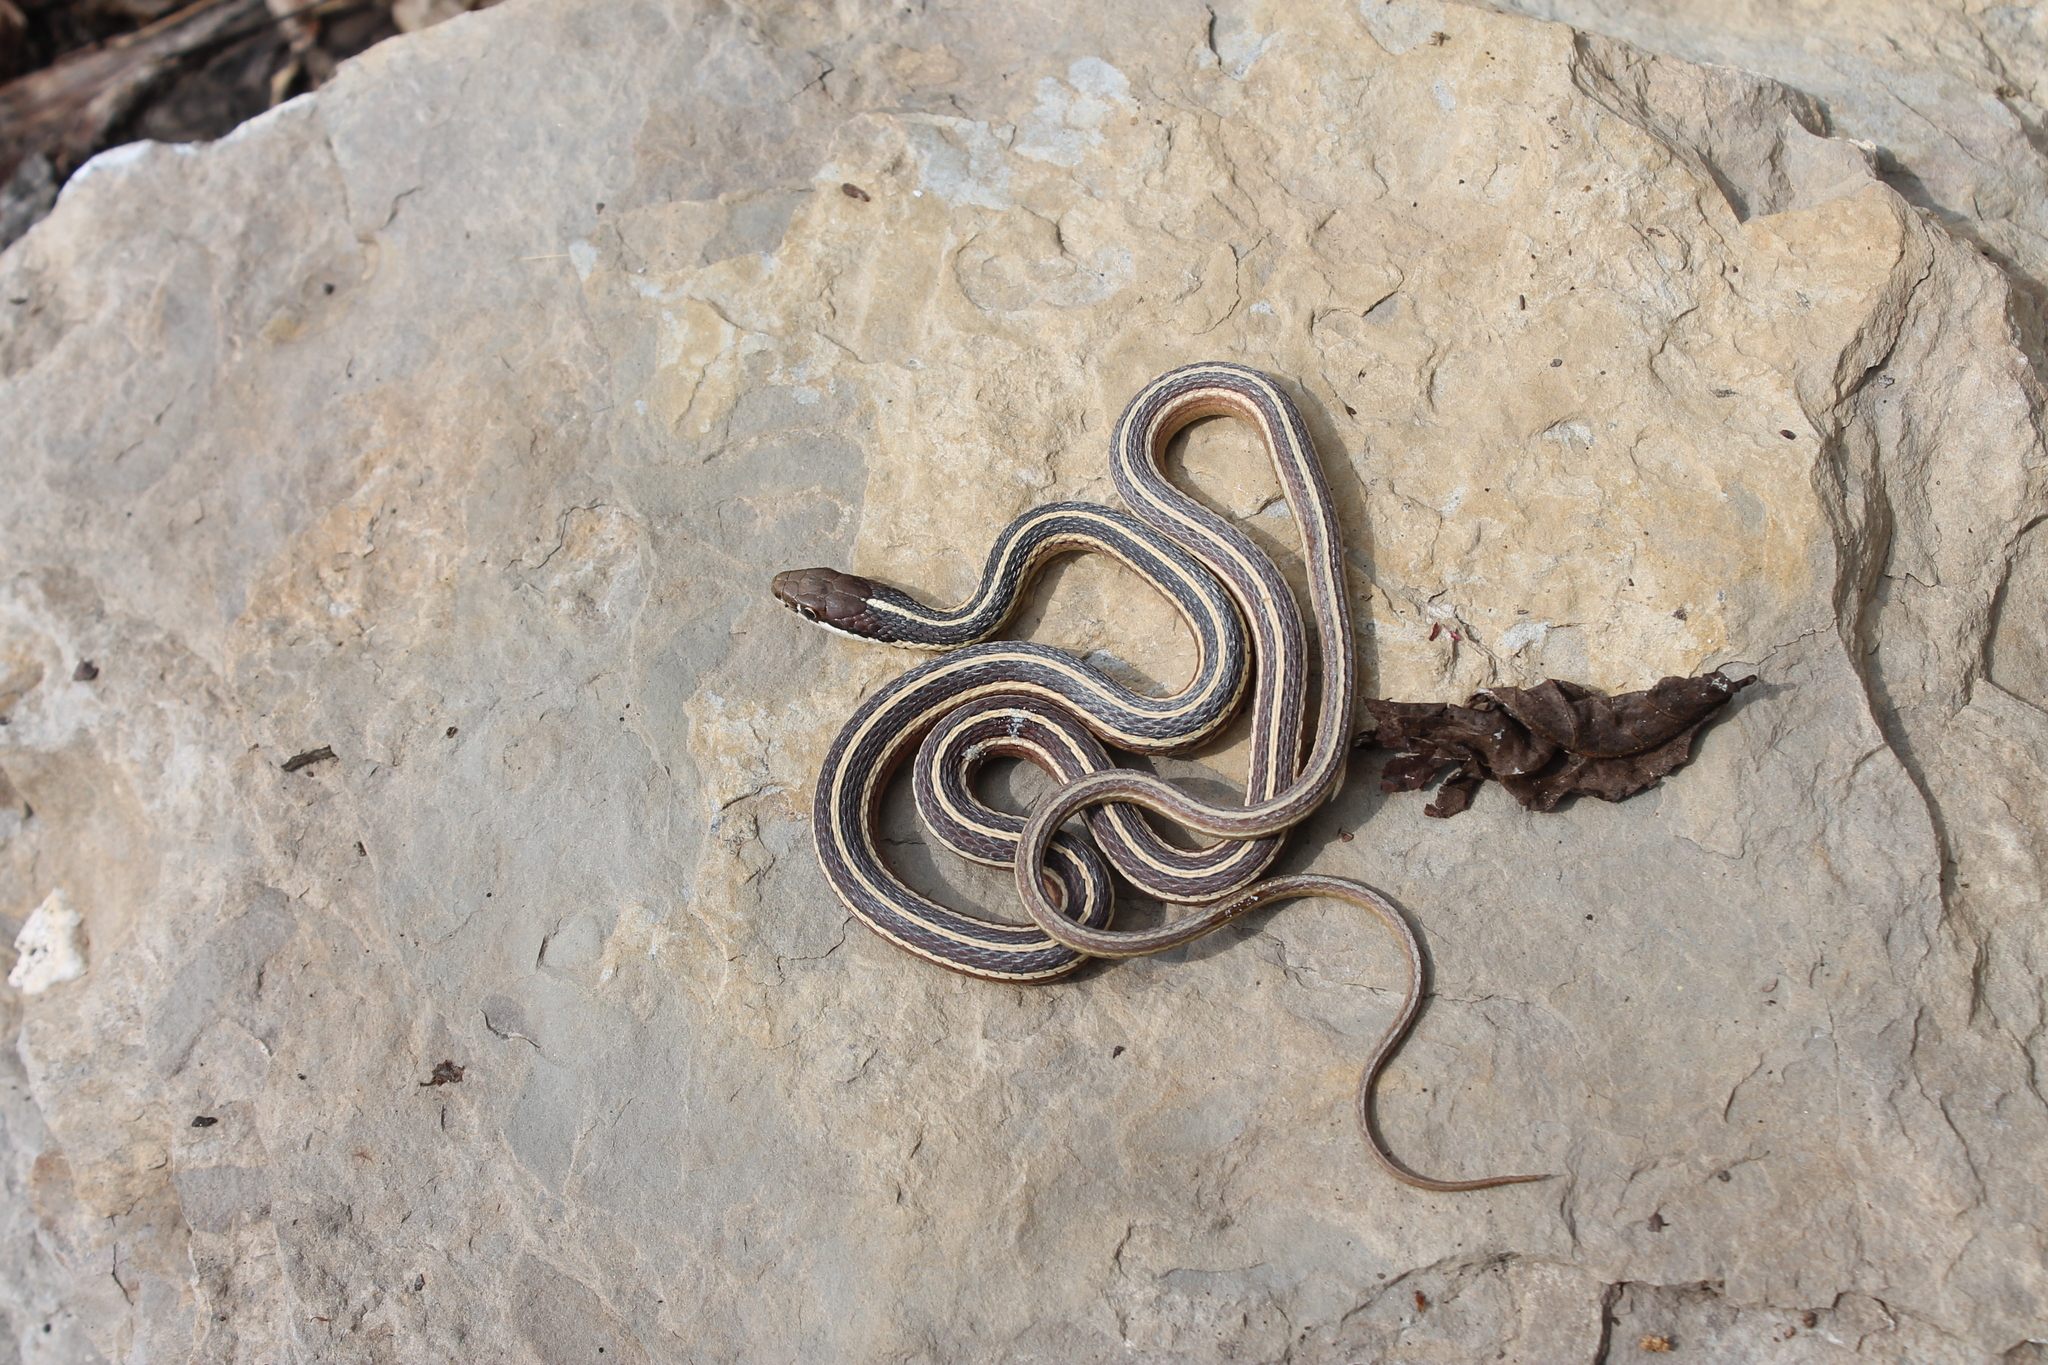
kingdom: Animalia
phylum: Chordata
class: Squamata
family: Colubridae
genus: Thamnophis
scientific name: Thamnophis saurita
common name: Eastern ribbonsnake
